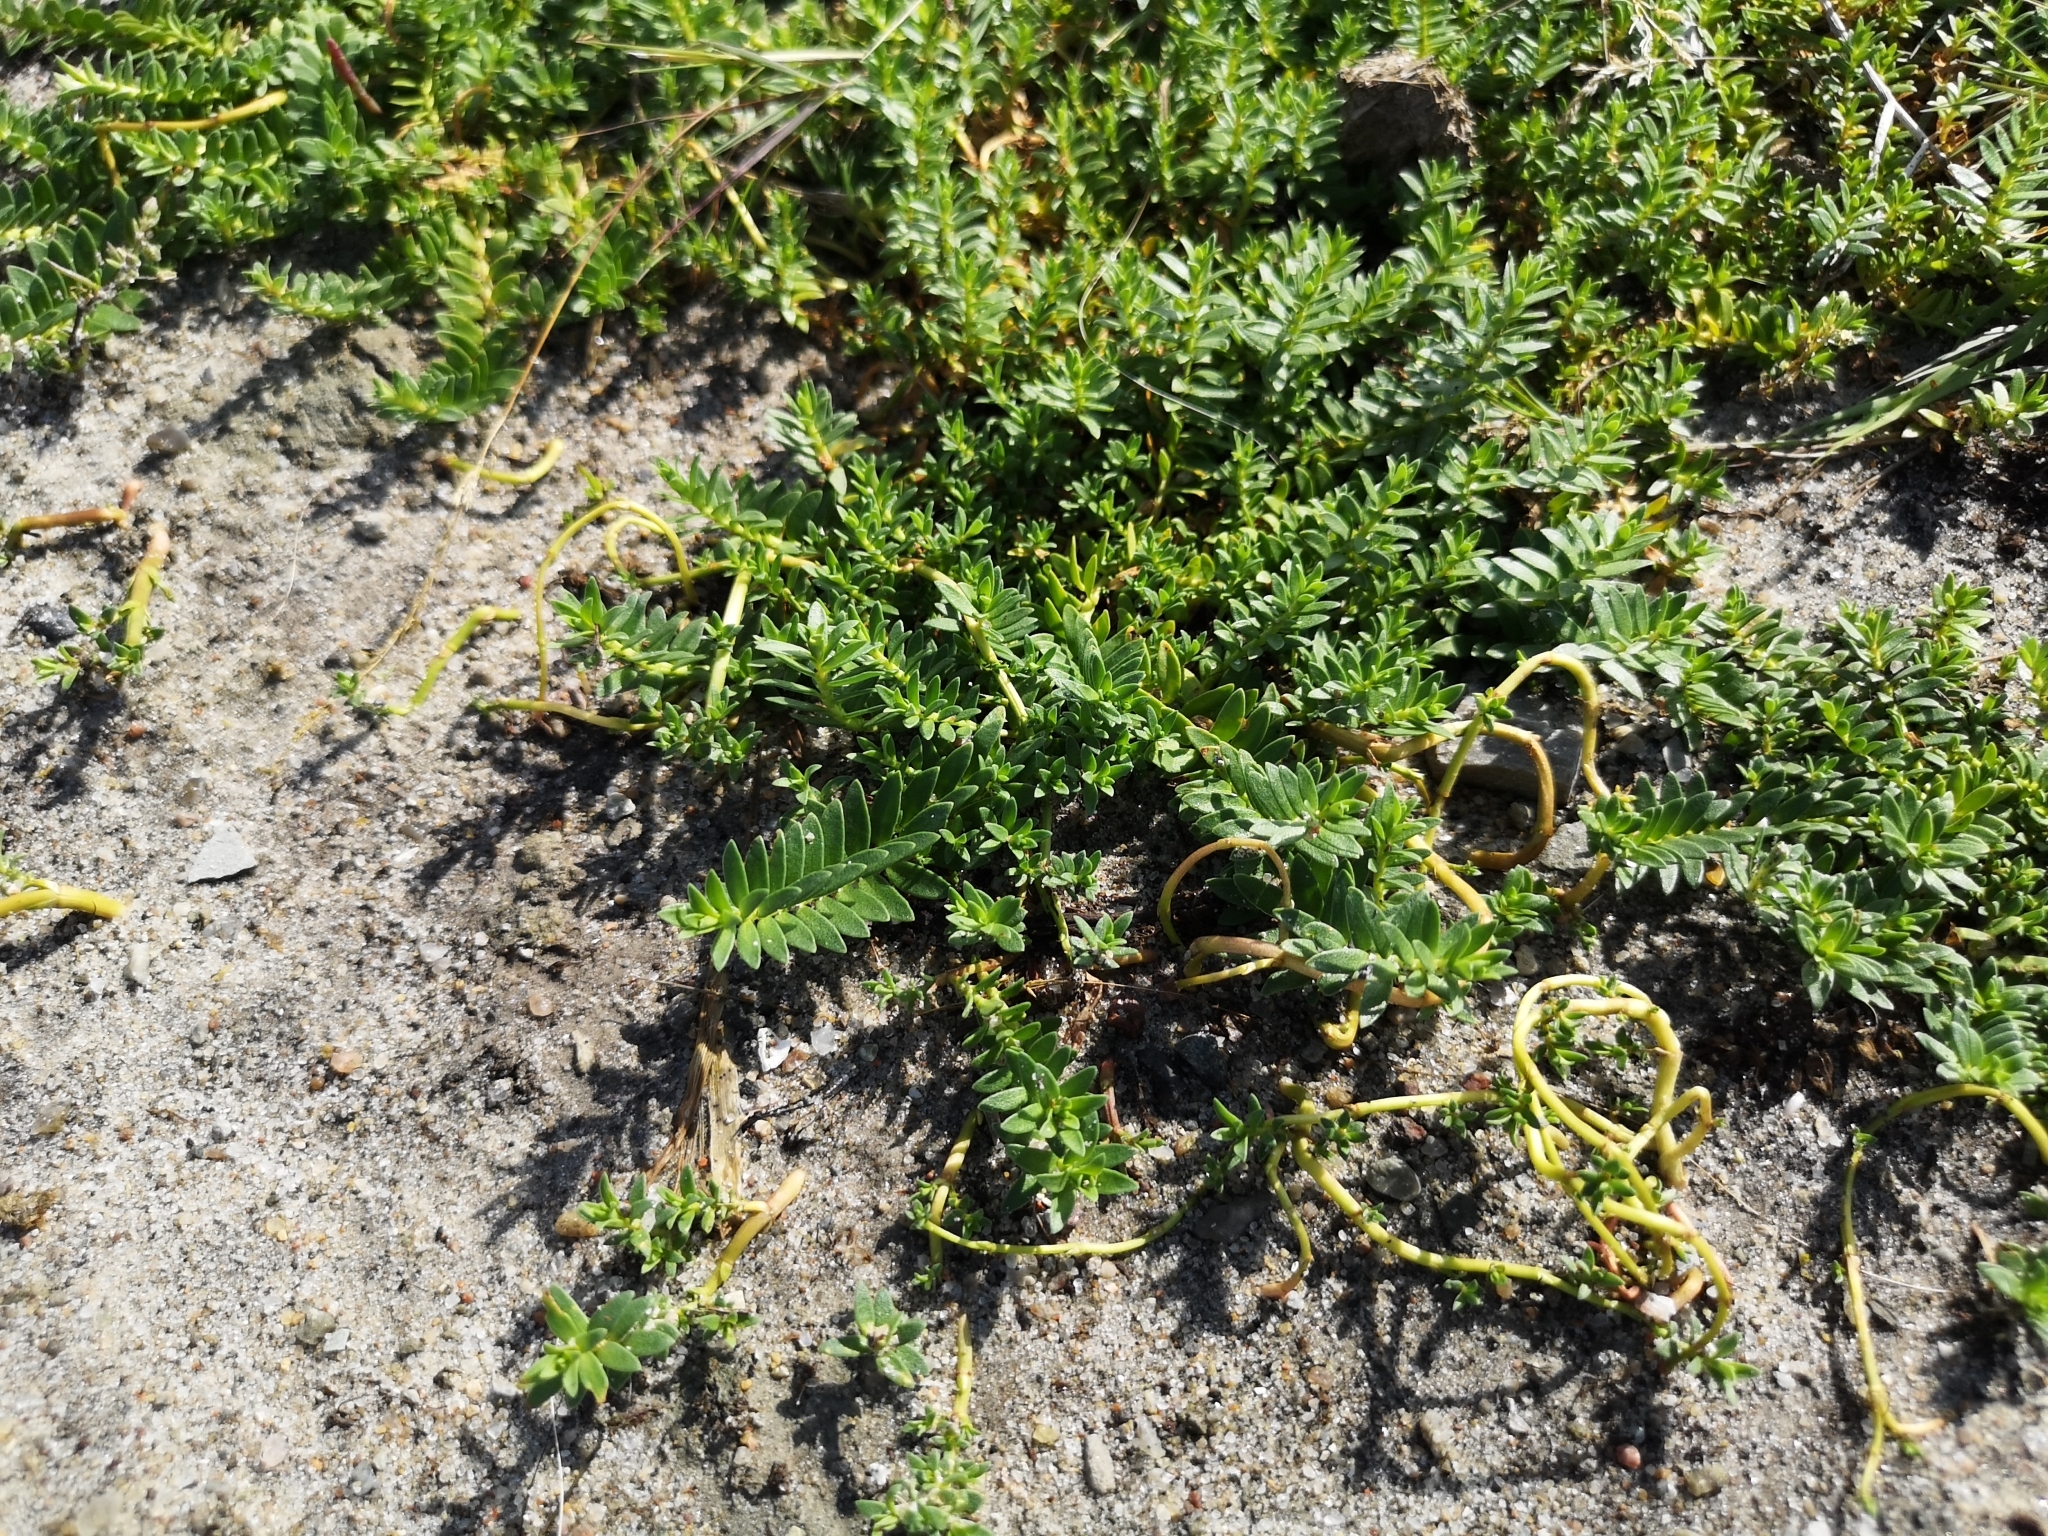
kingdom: Plantae
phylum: Tracheophyta
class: Magnoliopsida
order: Ericales
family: Primulaceae
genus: Lysimachia
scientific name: Lysimachia maritima
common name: Sea milkwort
